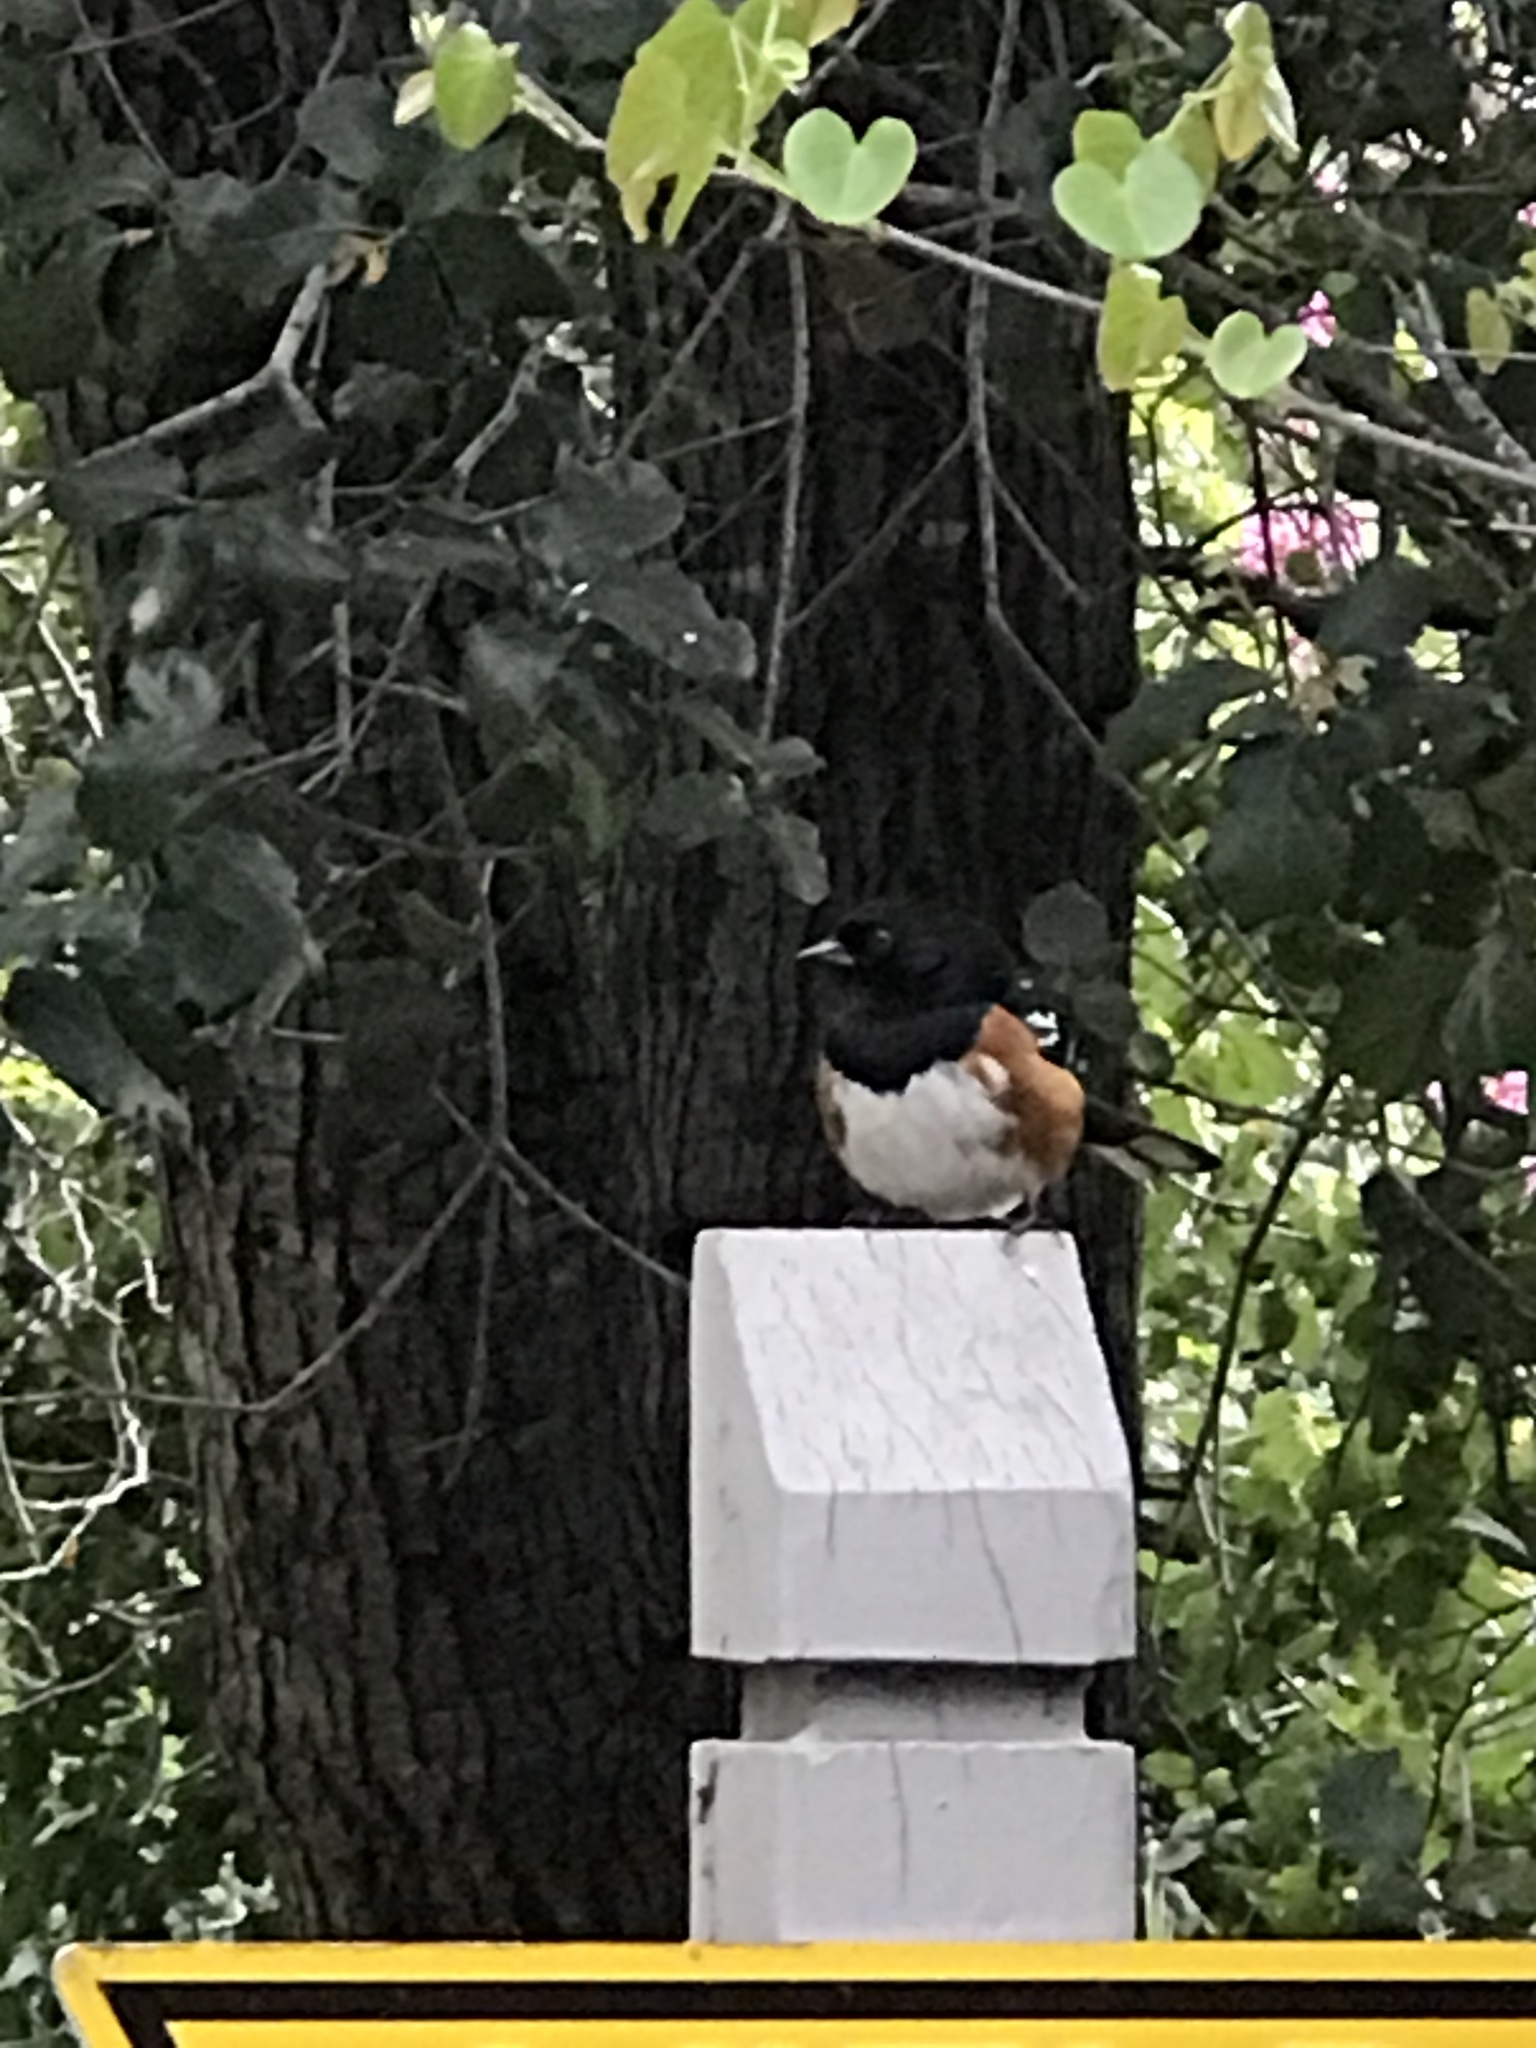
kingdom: Animalia
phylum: Chordata
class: Aves
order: Passeriformes
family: Passerellidae
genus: Pipilo
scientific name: Pipilo maculatus
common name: Spotted towhee
